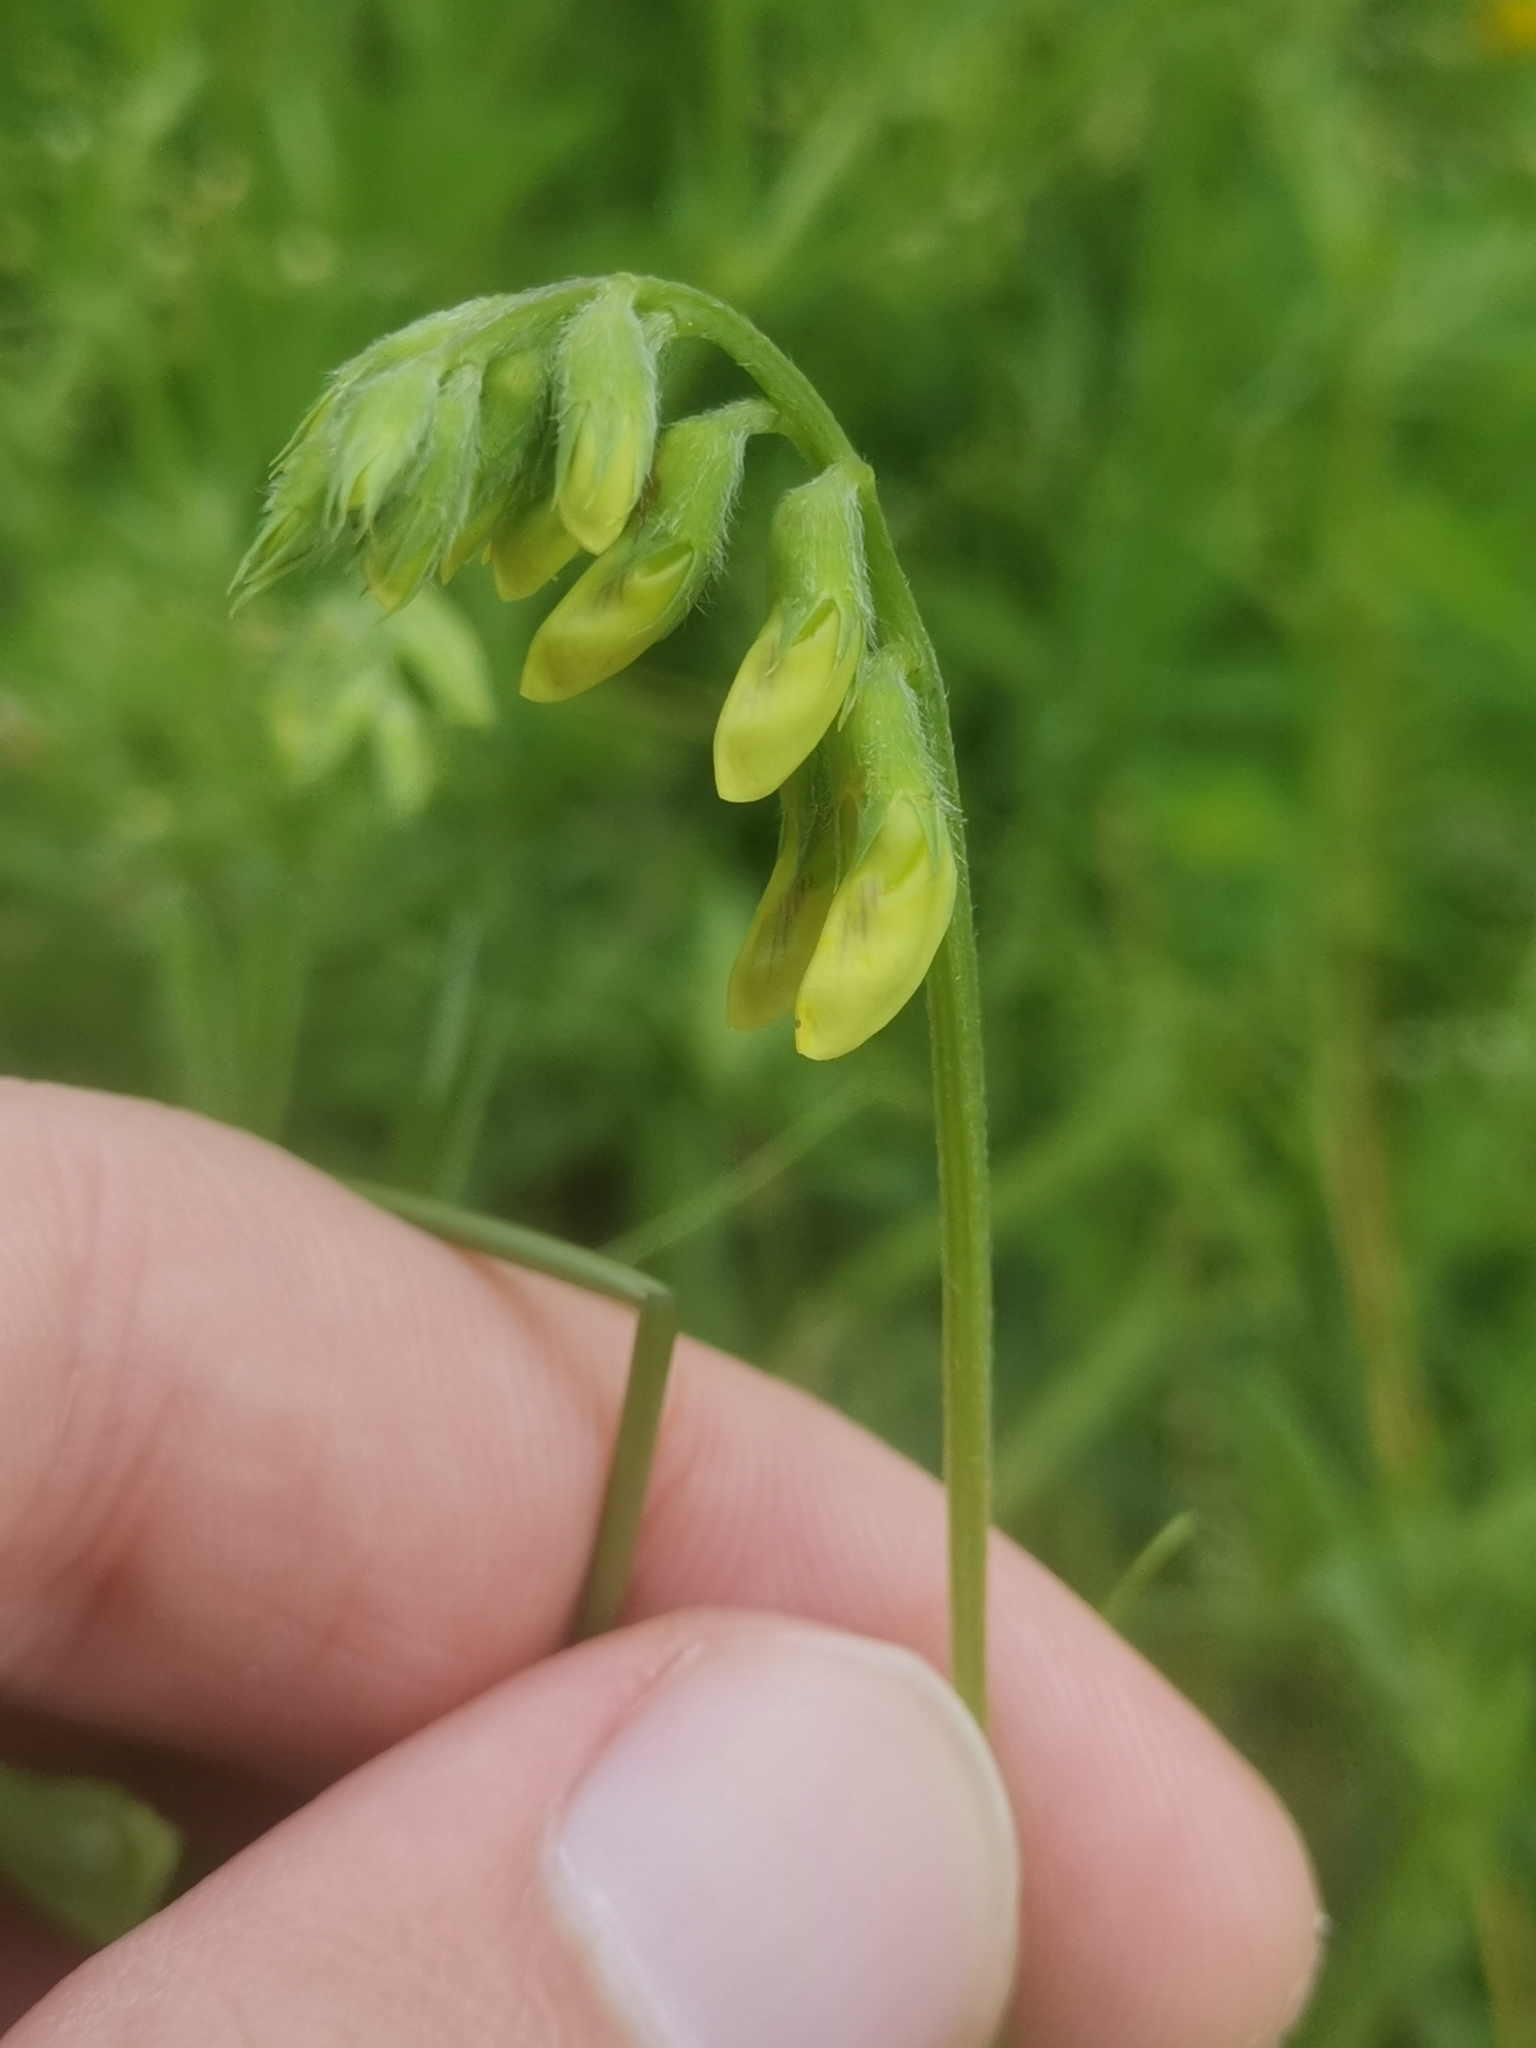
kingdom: Plantae
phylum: Tracheophyta
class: Magnoliopsida
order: Fabales
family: Fabaceae
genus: Lathyrus
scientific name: Lathyrus pratensis
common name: Meadow vetchling
